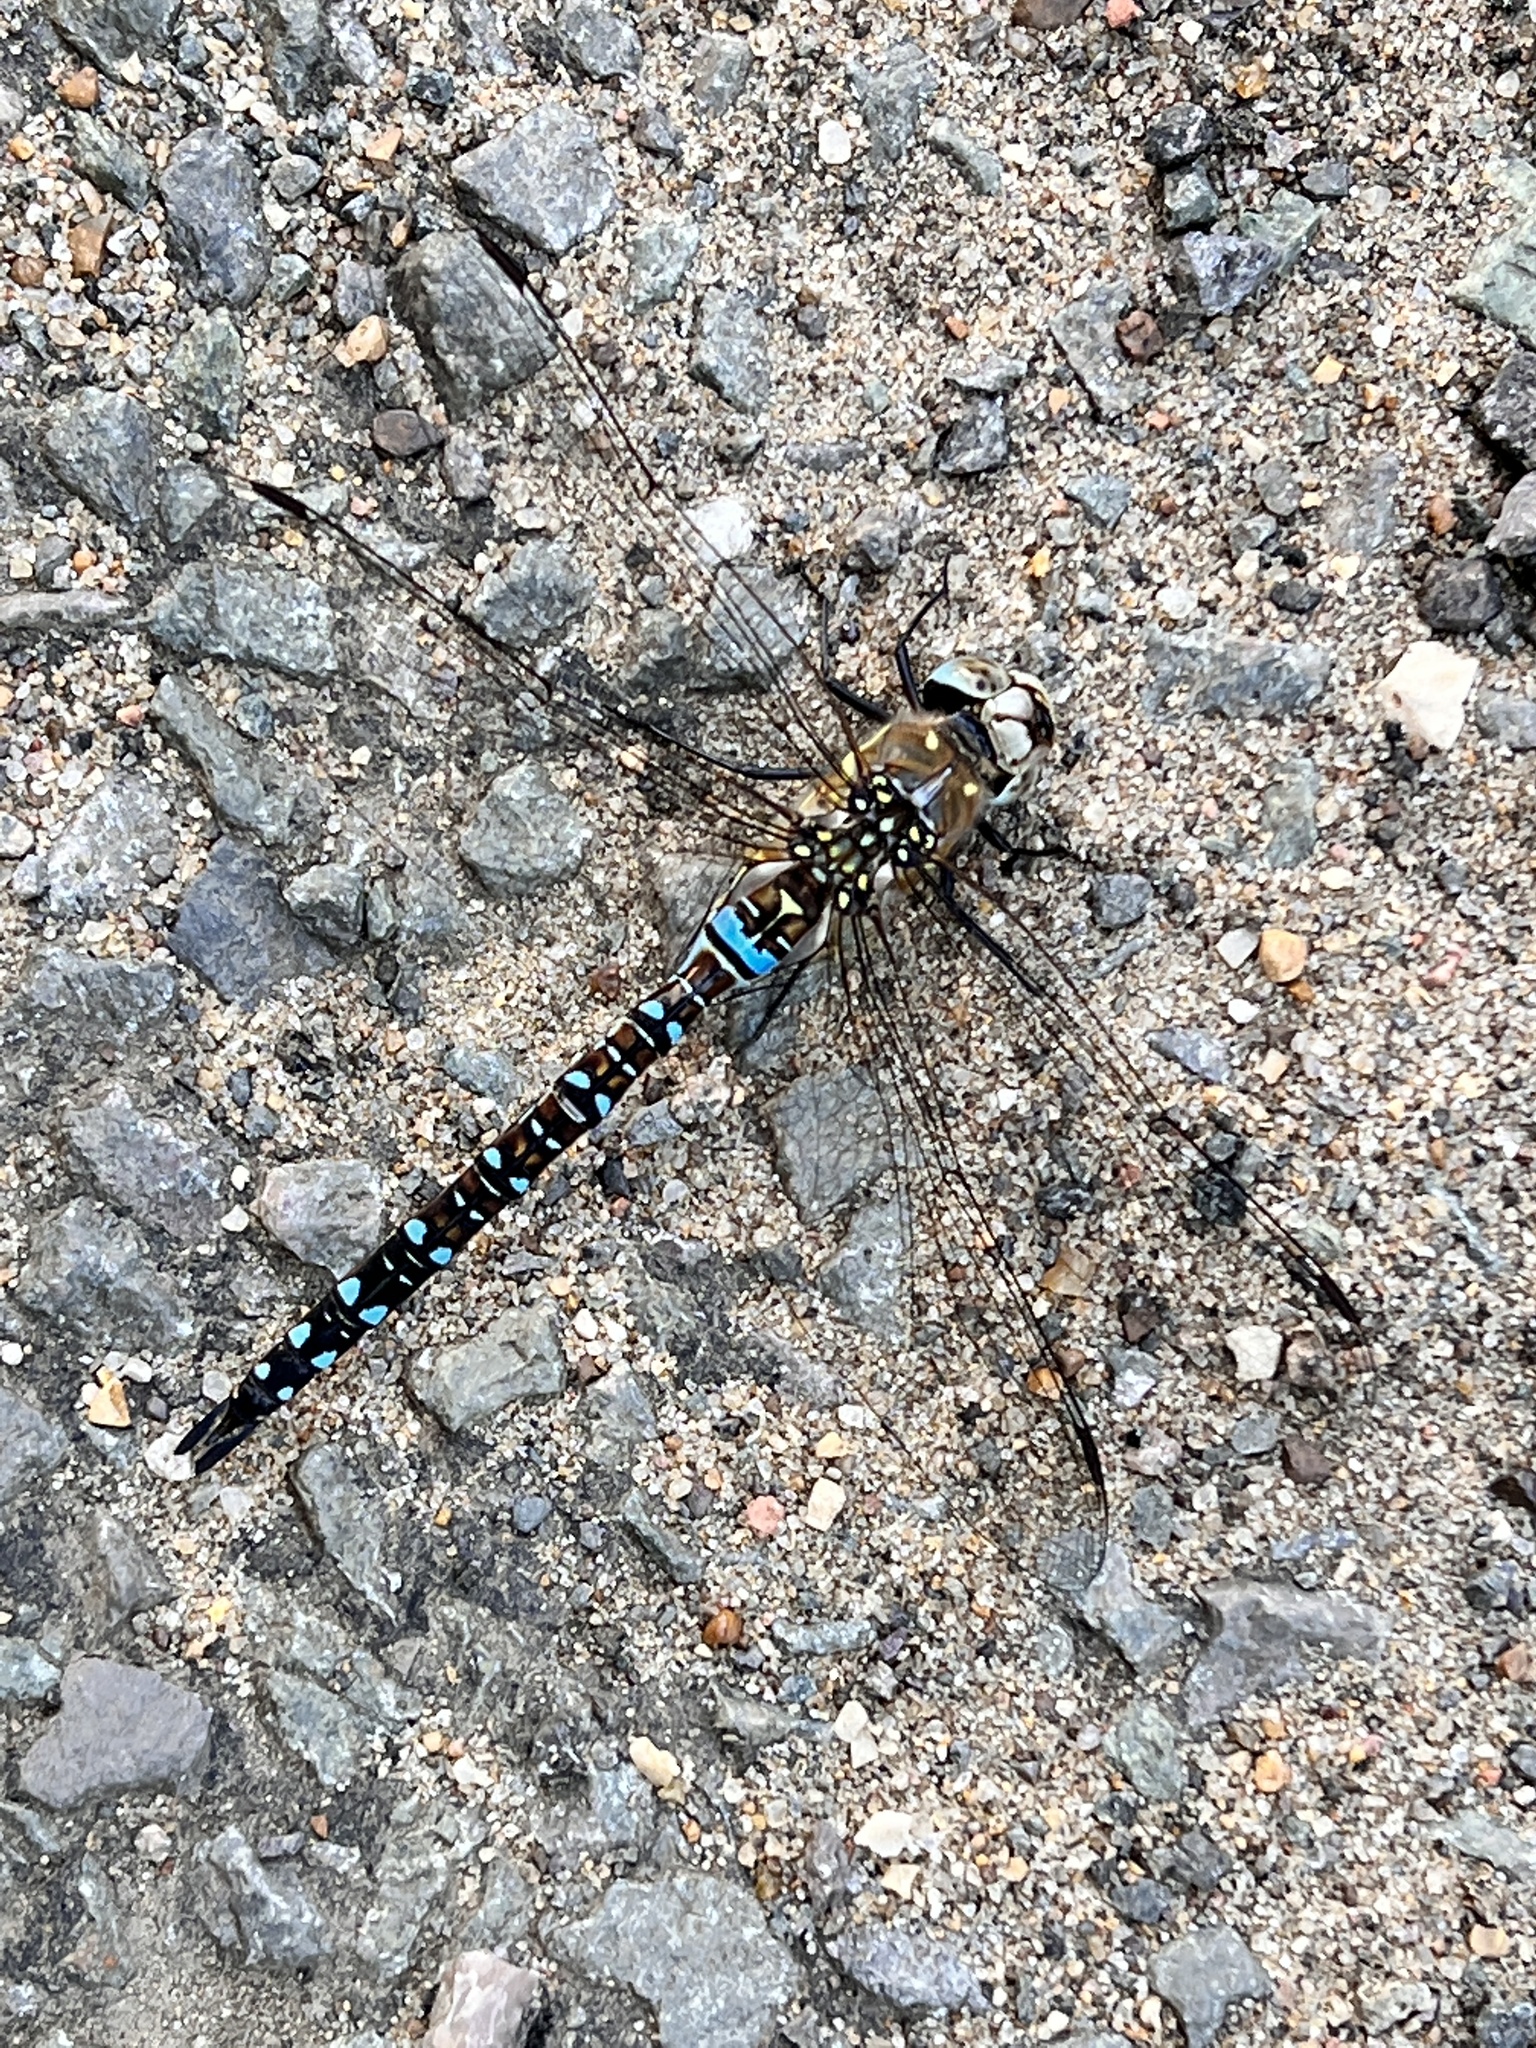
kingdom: Animalia
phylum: Arthropoda
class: Insecta
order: Odonata
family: Aeshnidae
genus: Aeshna
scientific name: Aeshna mixta
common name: Migrant hawker
